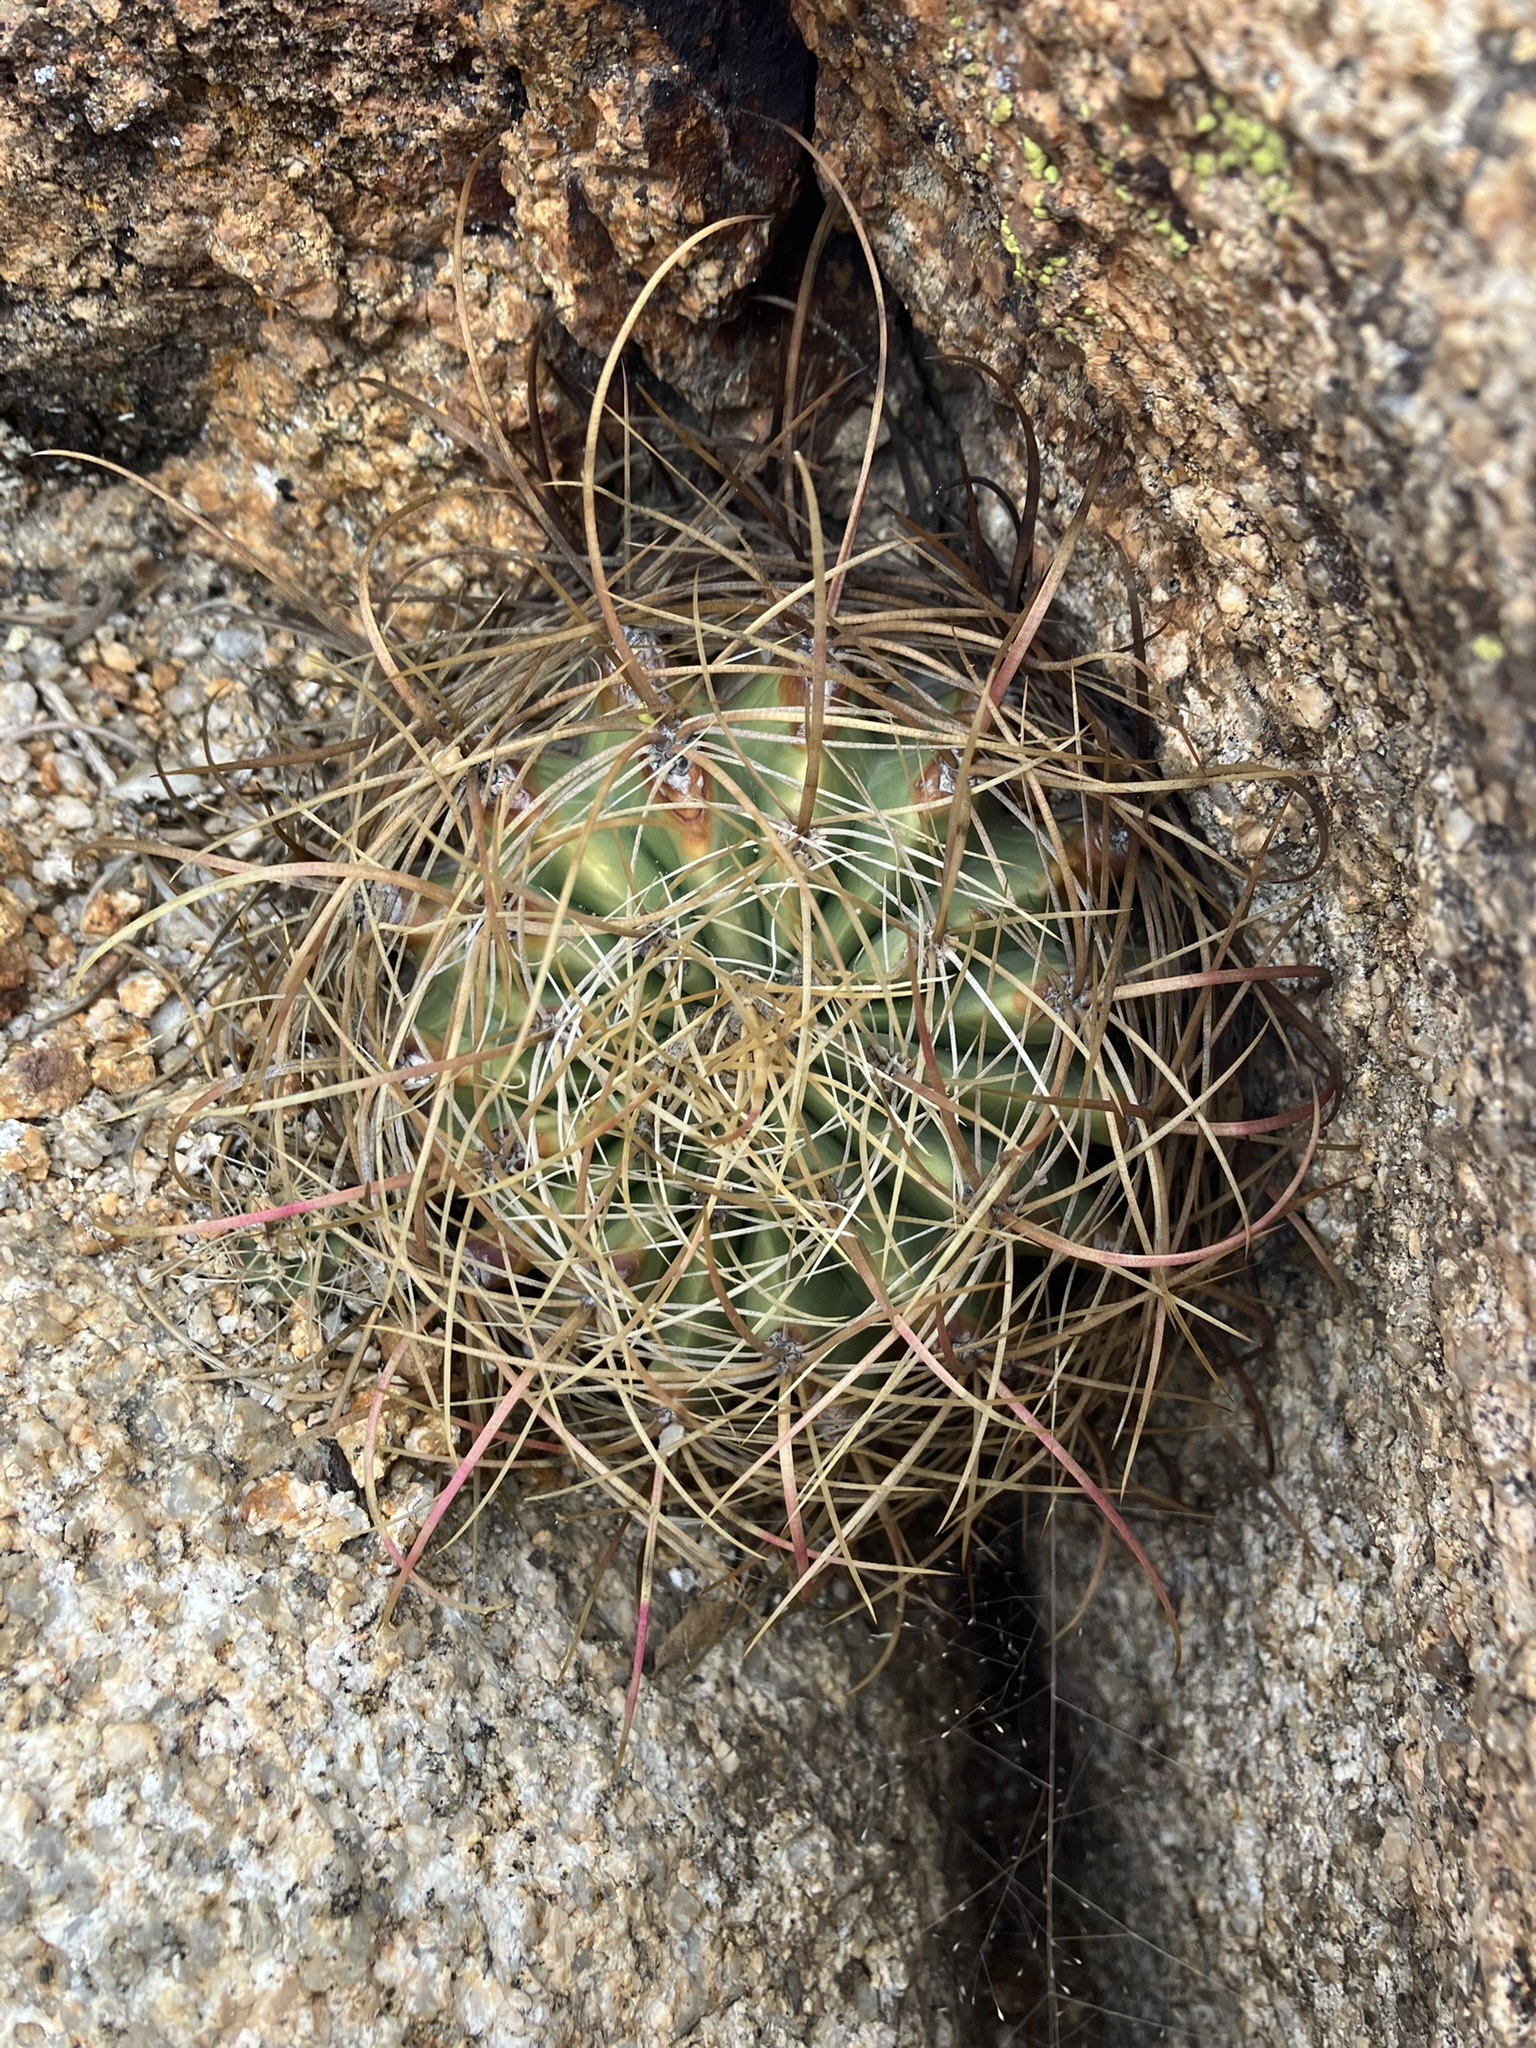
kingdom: Plantae
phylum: Tracheophyta
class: Magnoliopsida
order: Caryophyllales
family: Cactaceae
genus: Ferocactus
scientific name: Ferocactus cylindraceus
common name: California barrel cactus
